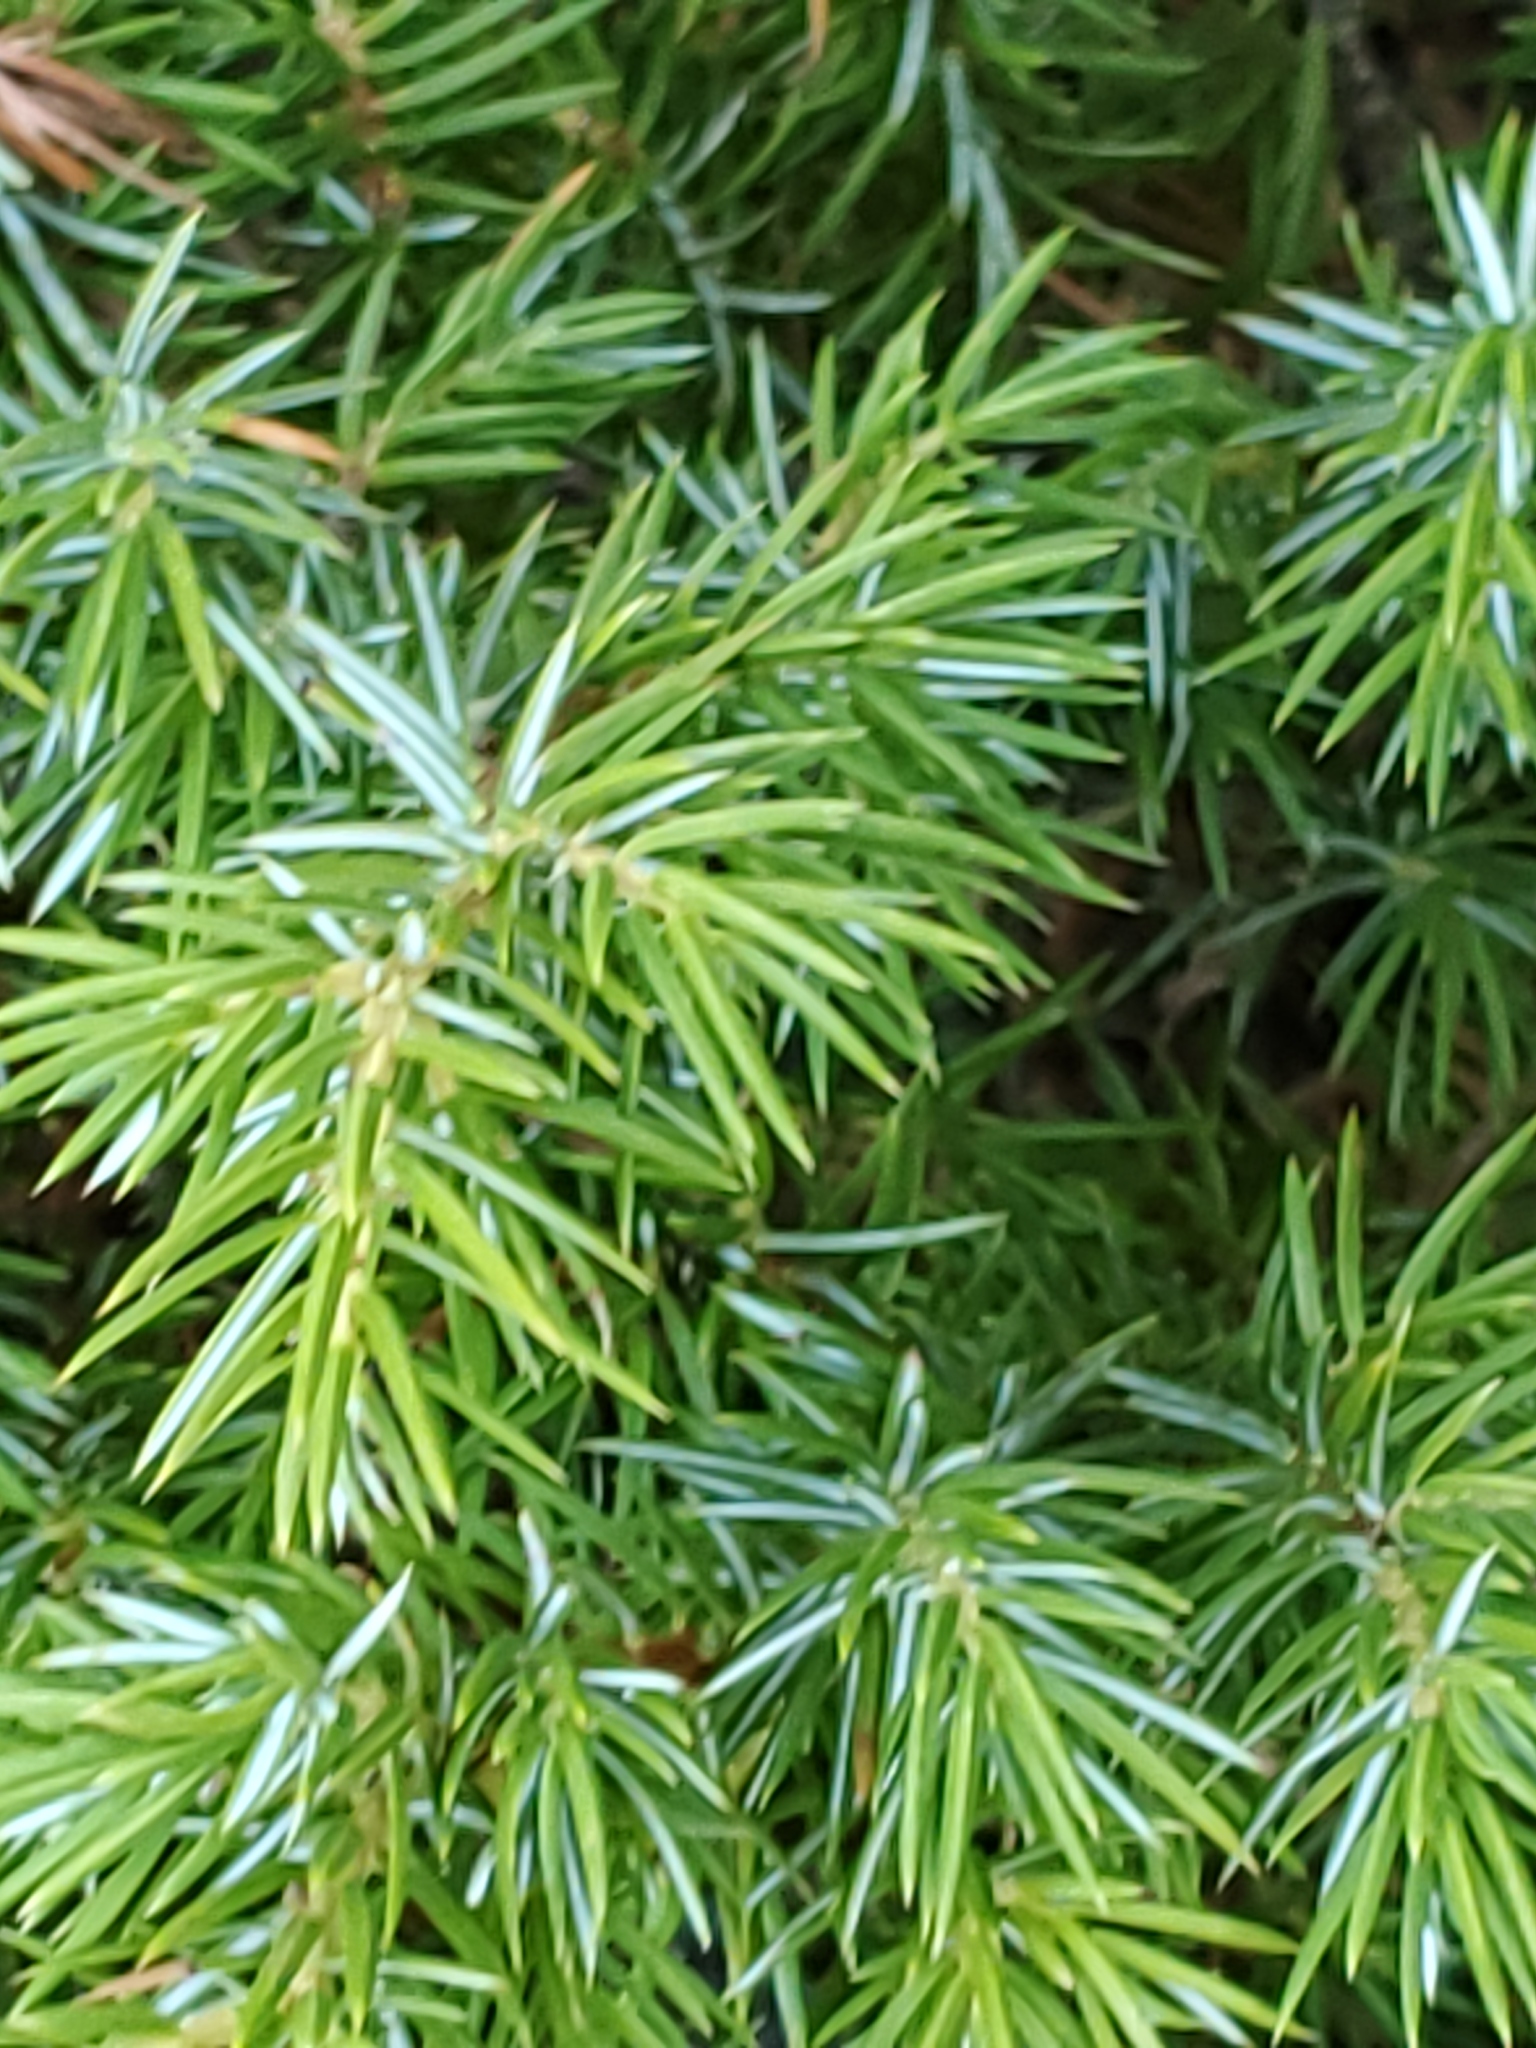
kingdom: Plantae
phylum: Tracheophyta
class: Pinopsida
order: Pinales
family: Cupressaceae
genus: Juniperus
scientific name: Juniperus communis
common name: Common juniper
